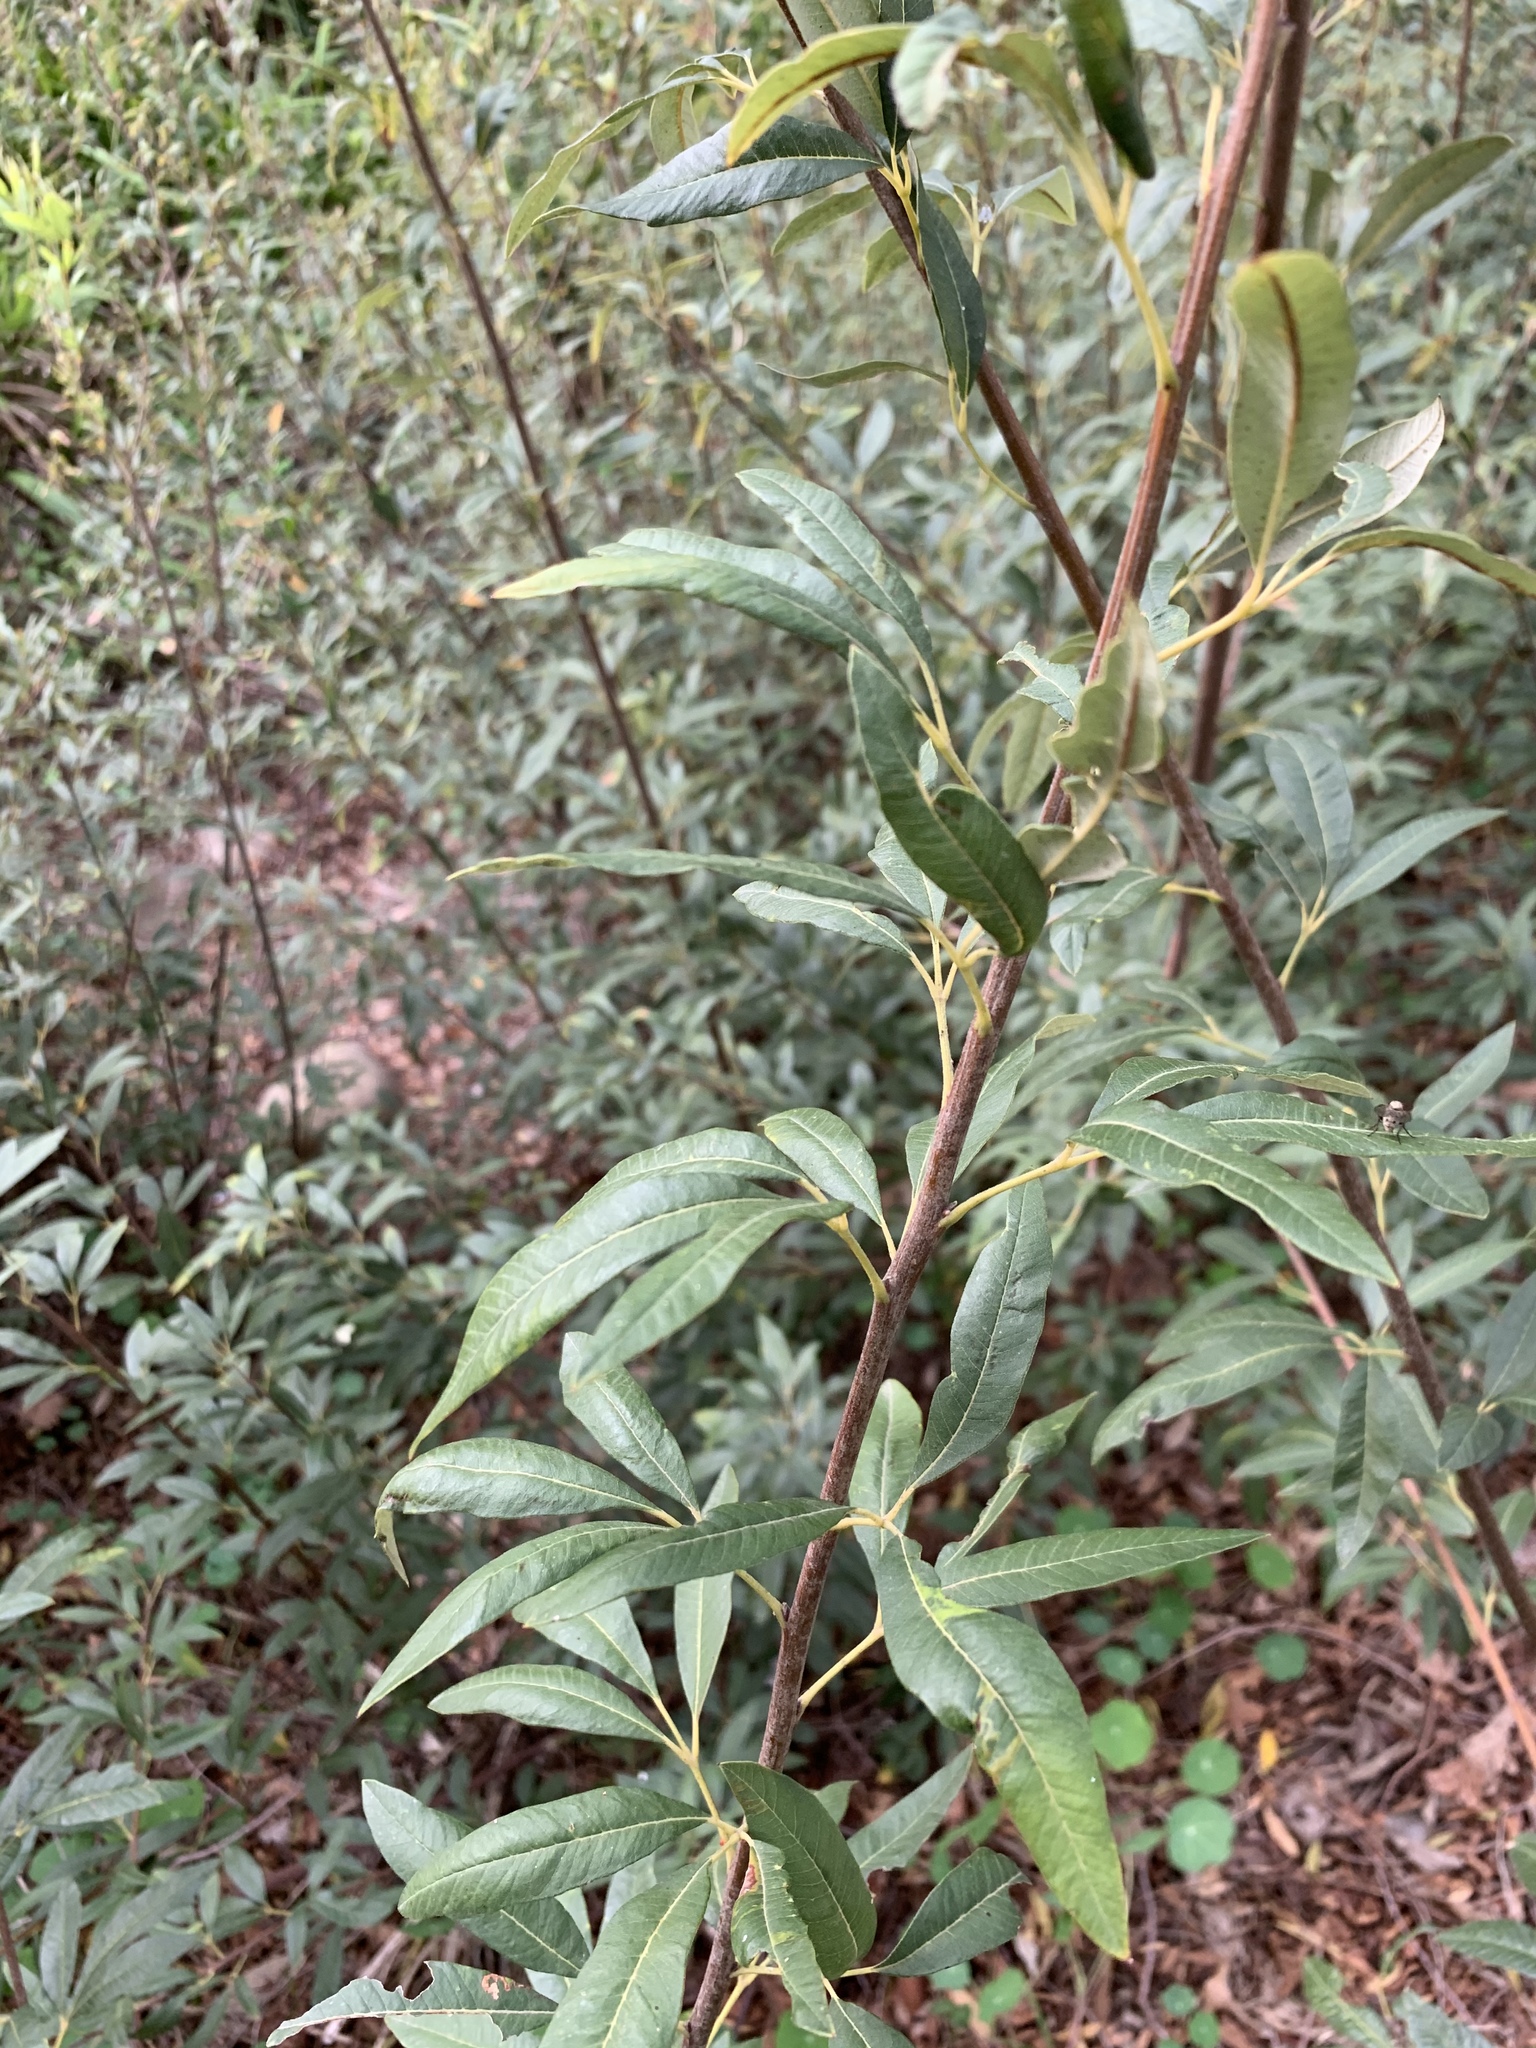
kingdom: Plantae
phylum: Tracheophyta
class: Magnoliopsida
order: Sapindales
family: Anacardiaceae
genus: Searsia
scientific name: Searsia angustifolia
